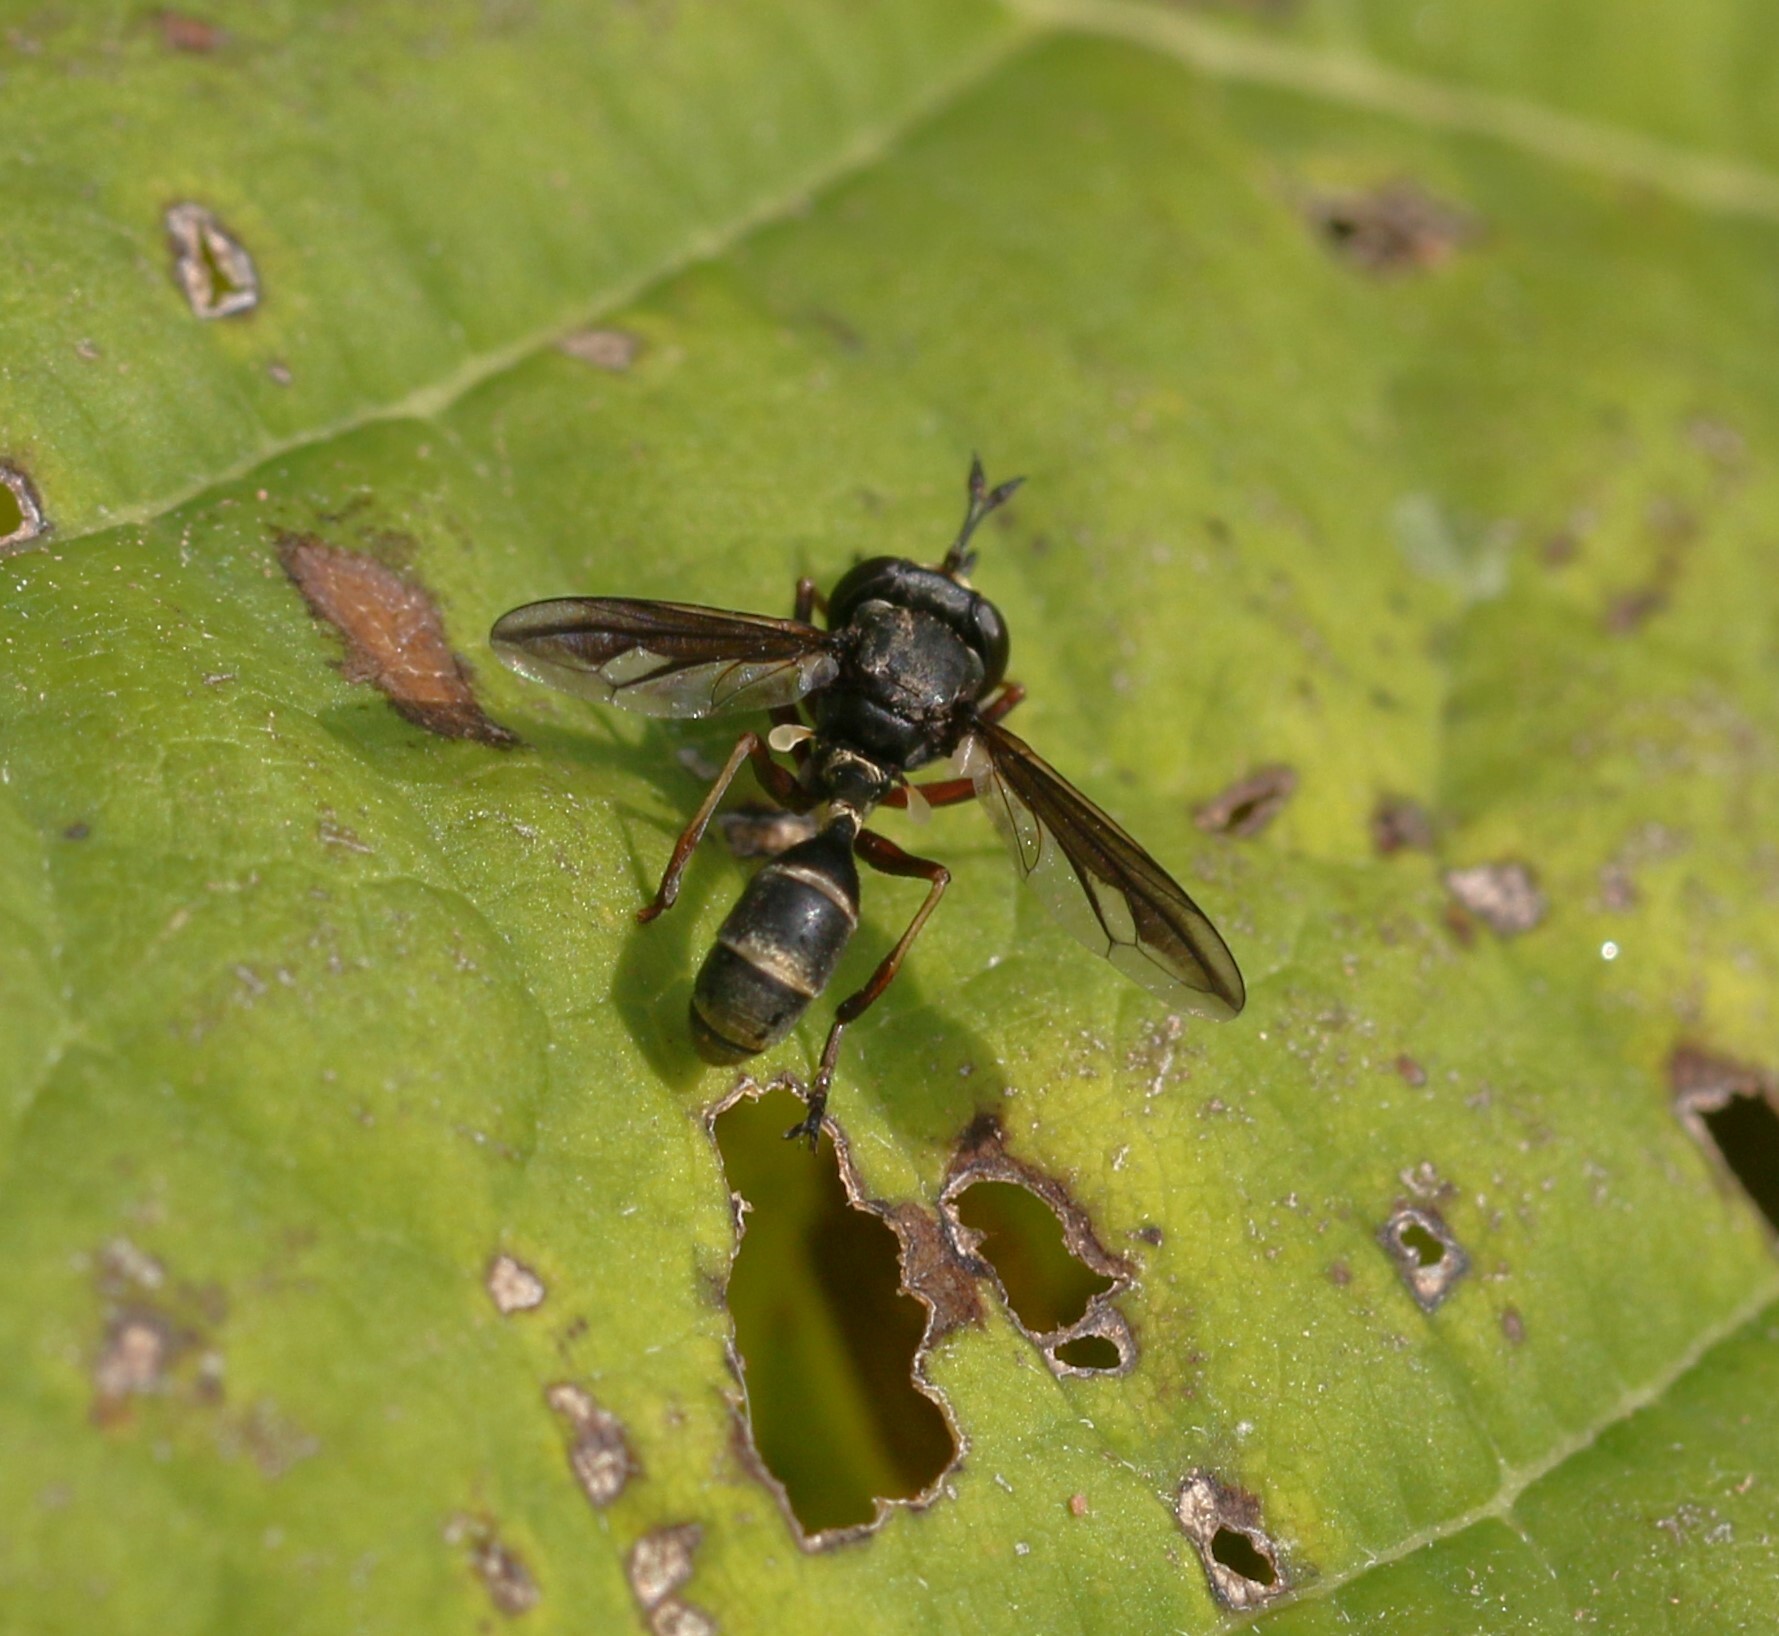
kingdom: Animalia
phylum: Arthropoda
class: Insecta
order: Diptera
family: Conopidae
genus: Physocephala
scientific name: Physocephala furcillata
